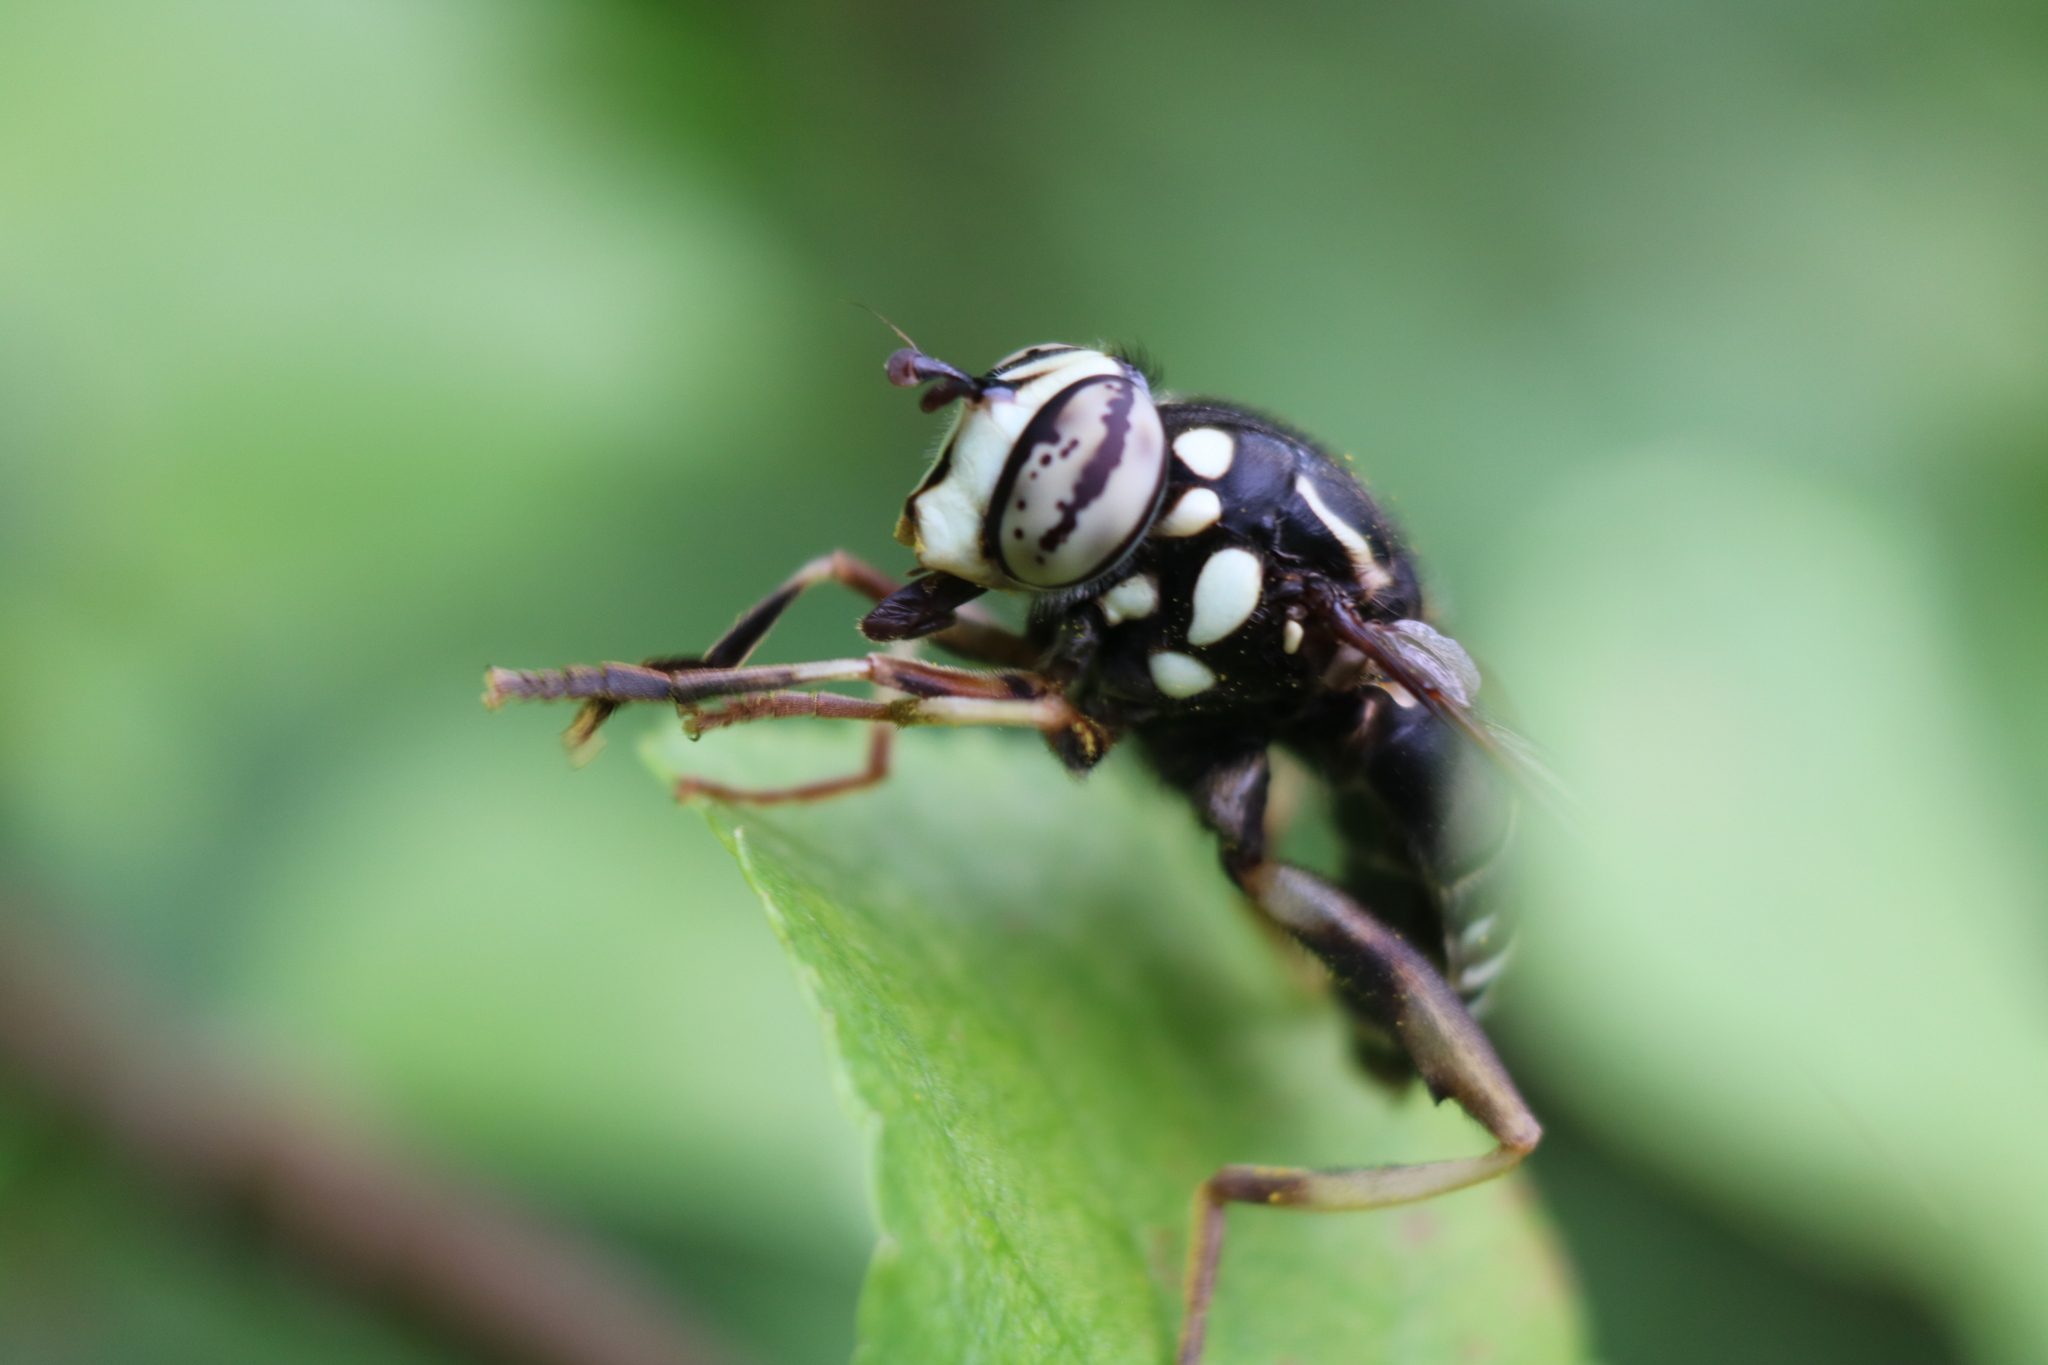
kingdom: Animalia
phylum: Arthropoda
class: Insecta
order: Diptera
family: Syrphidae
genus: Spilomyia
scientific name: Spilomyia fusca
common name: Bald-faced hornet fly
